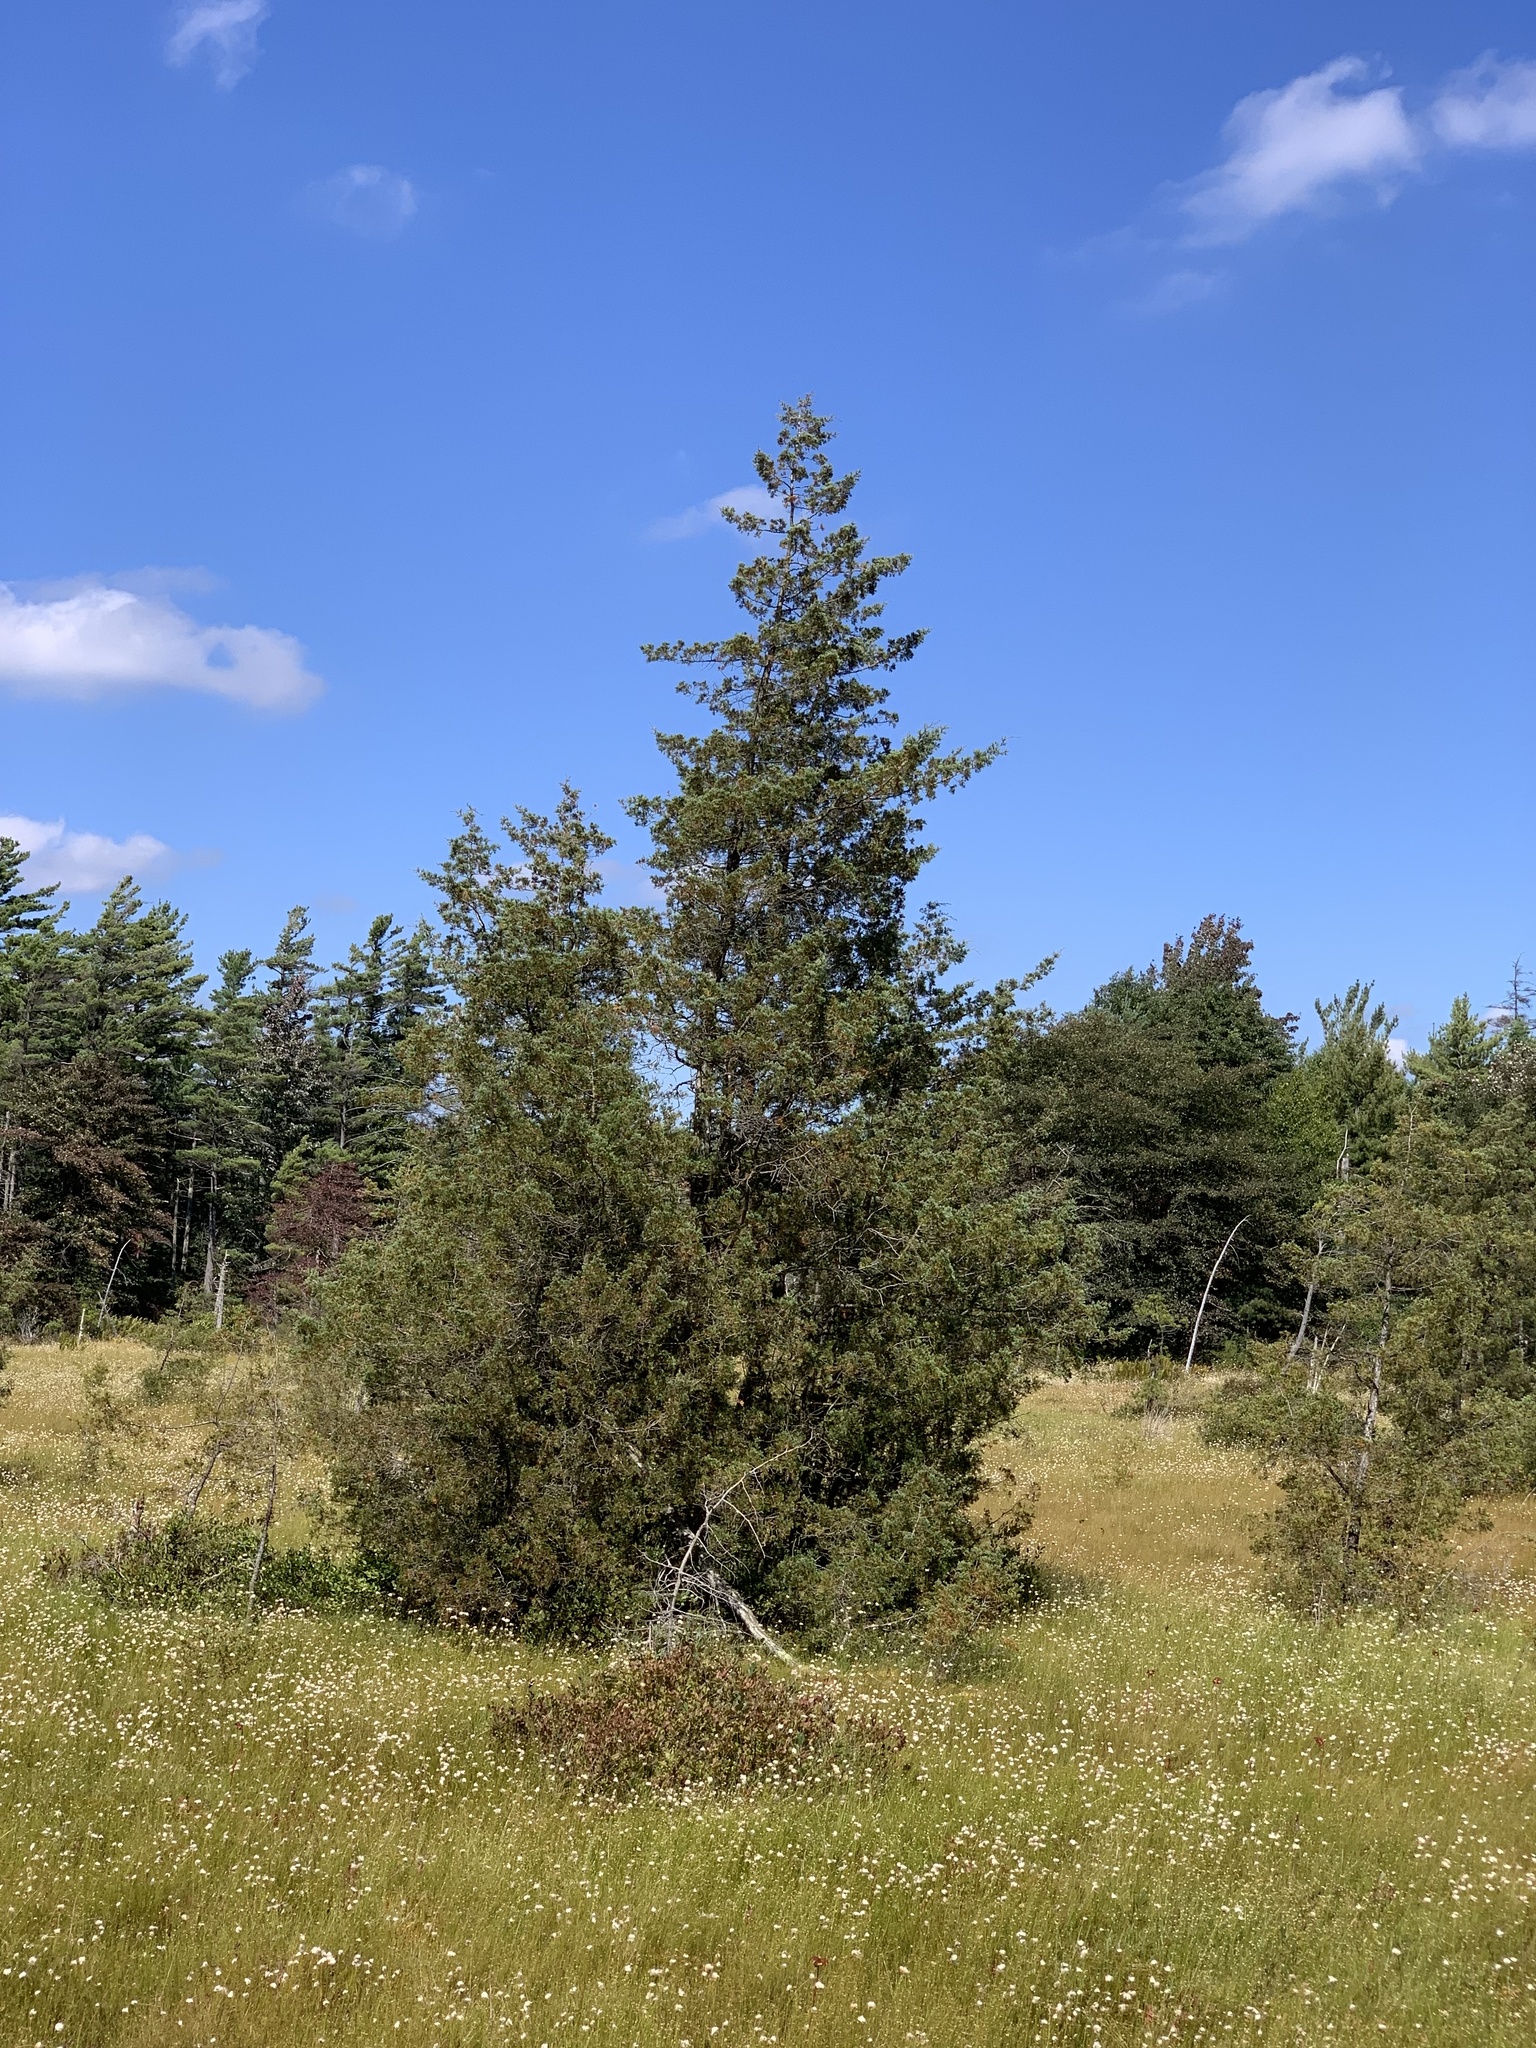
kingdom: Plantae
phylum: Tracheophyta
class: Pinopsida
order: Pinales
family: Cupressaceae
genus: Chamaecyparis
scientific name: Chamaecyparis thyoides
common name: Atlantic white cedar
